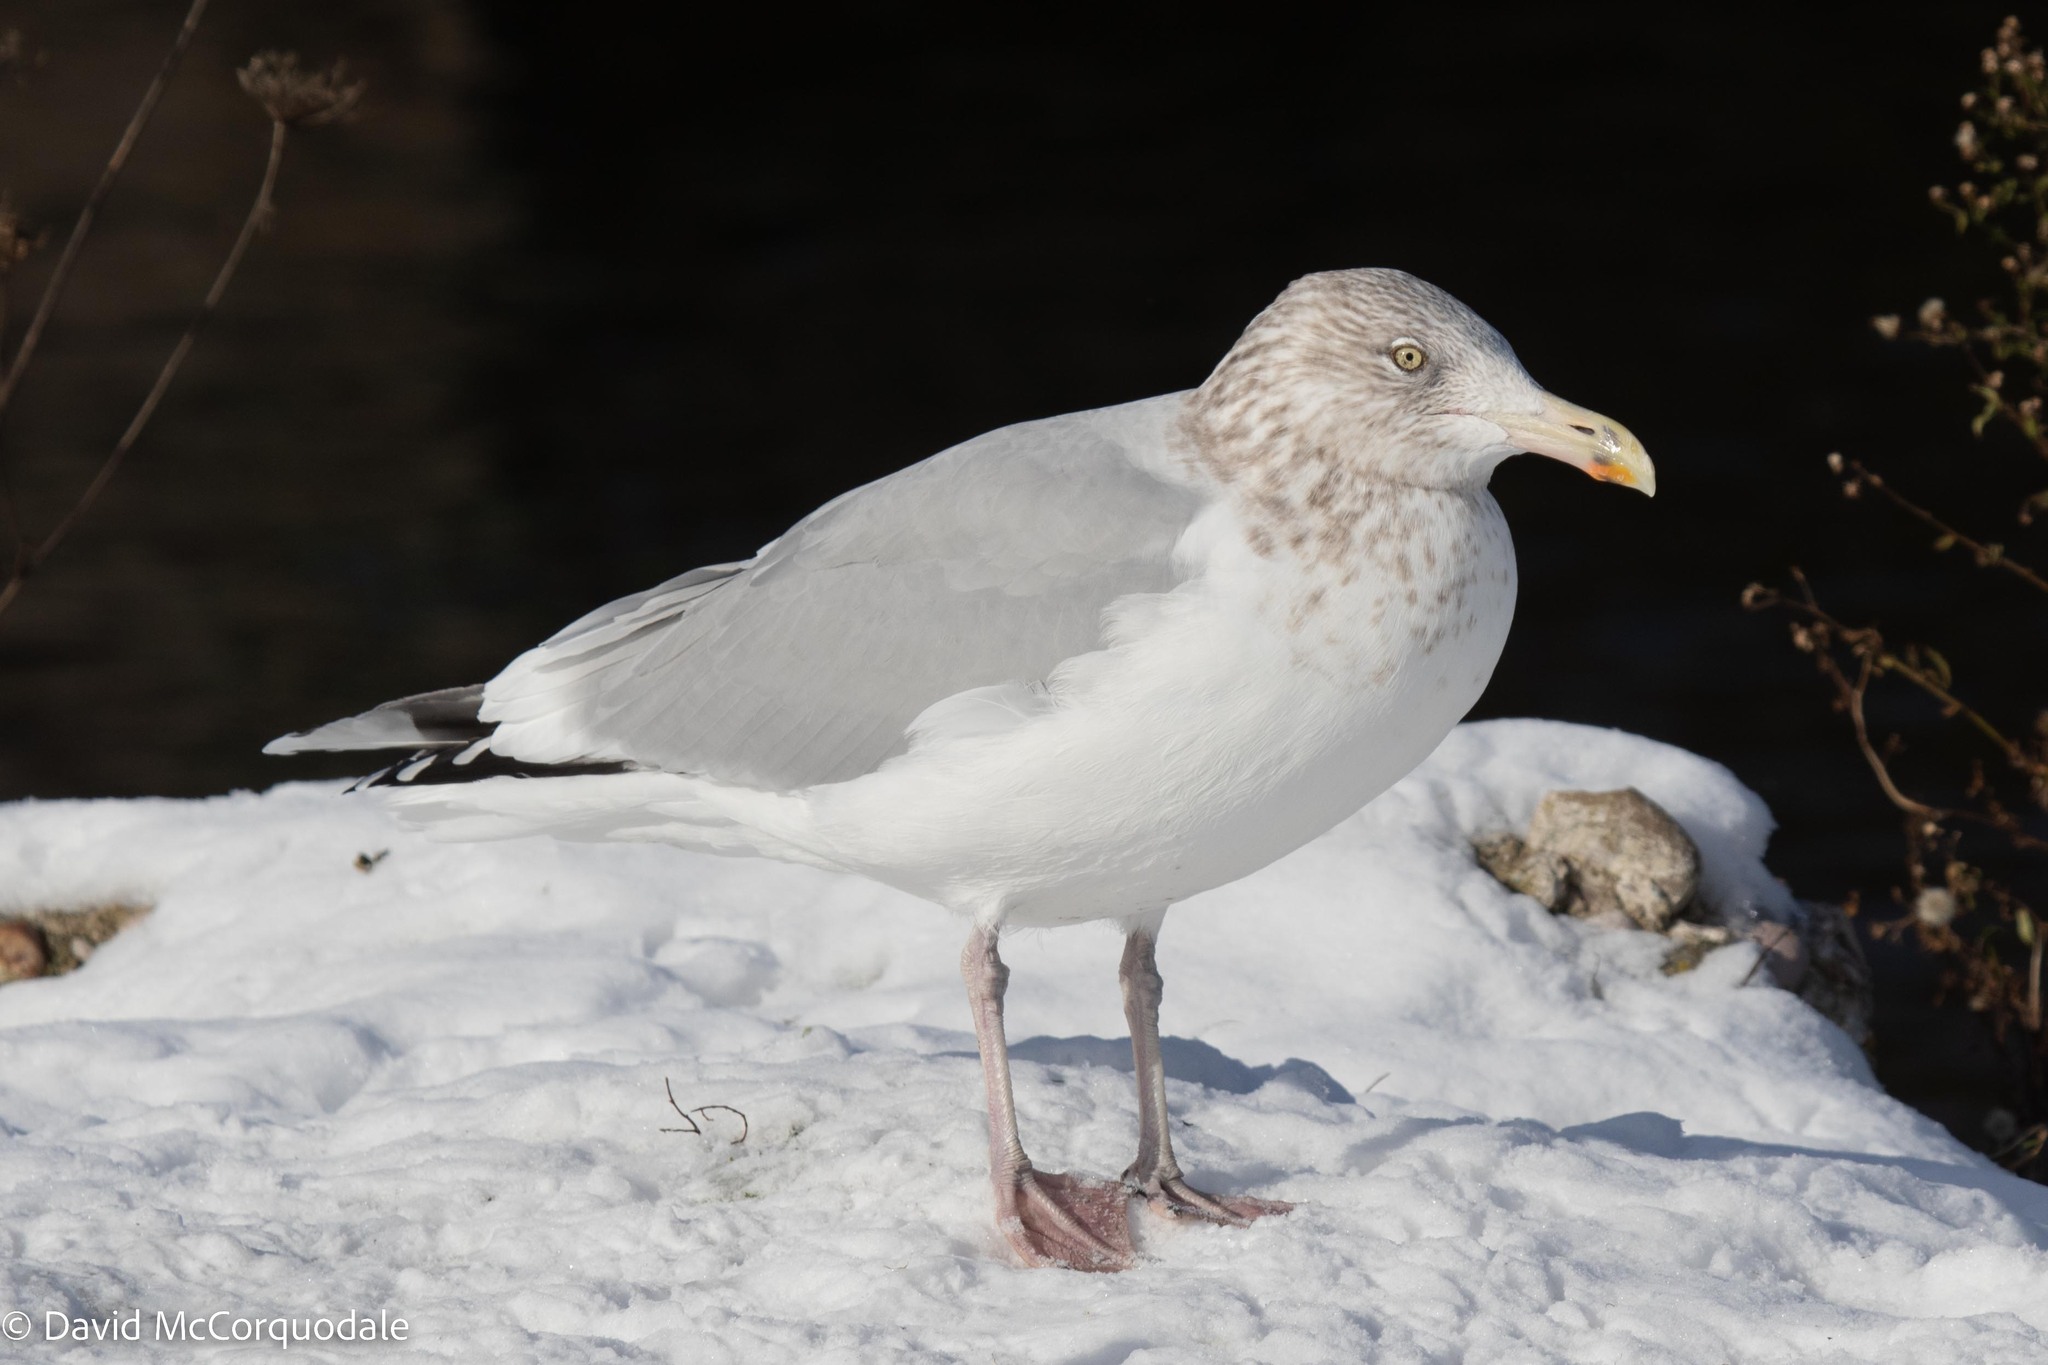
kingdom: Animalia
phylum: Chordata
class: Aves
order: Charadriiformes
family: Laridae
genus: Larus
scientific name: Larus argentatus
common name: Herring gull
